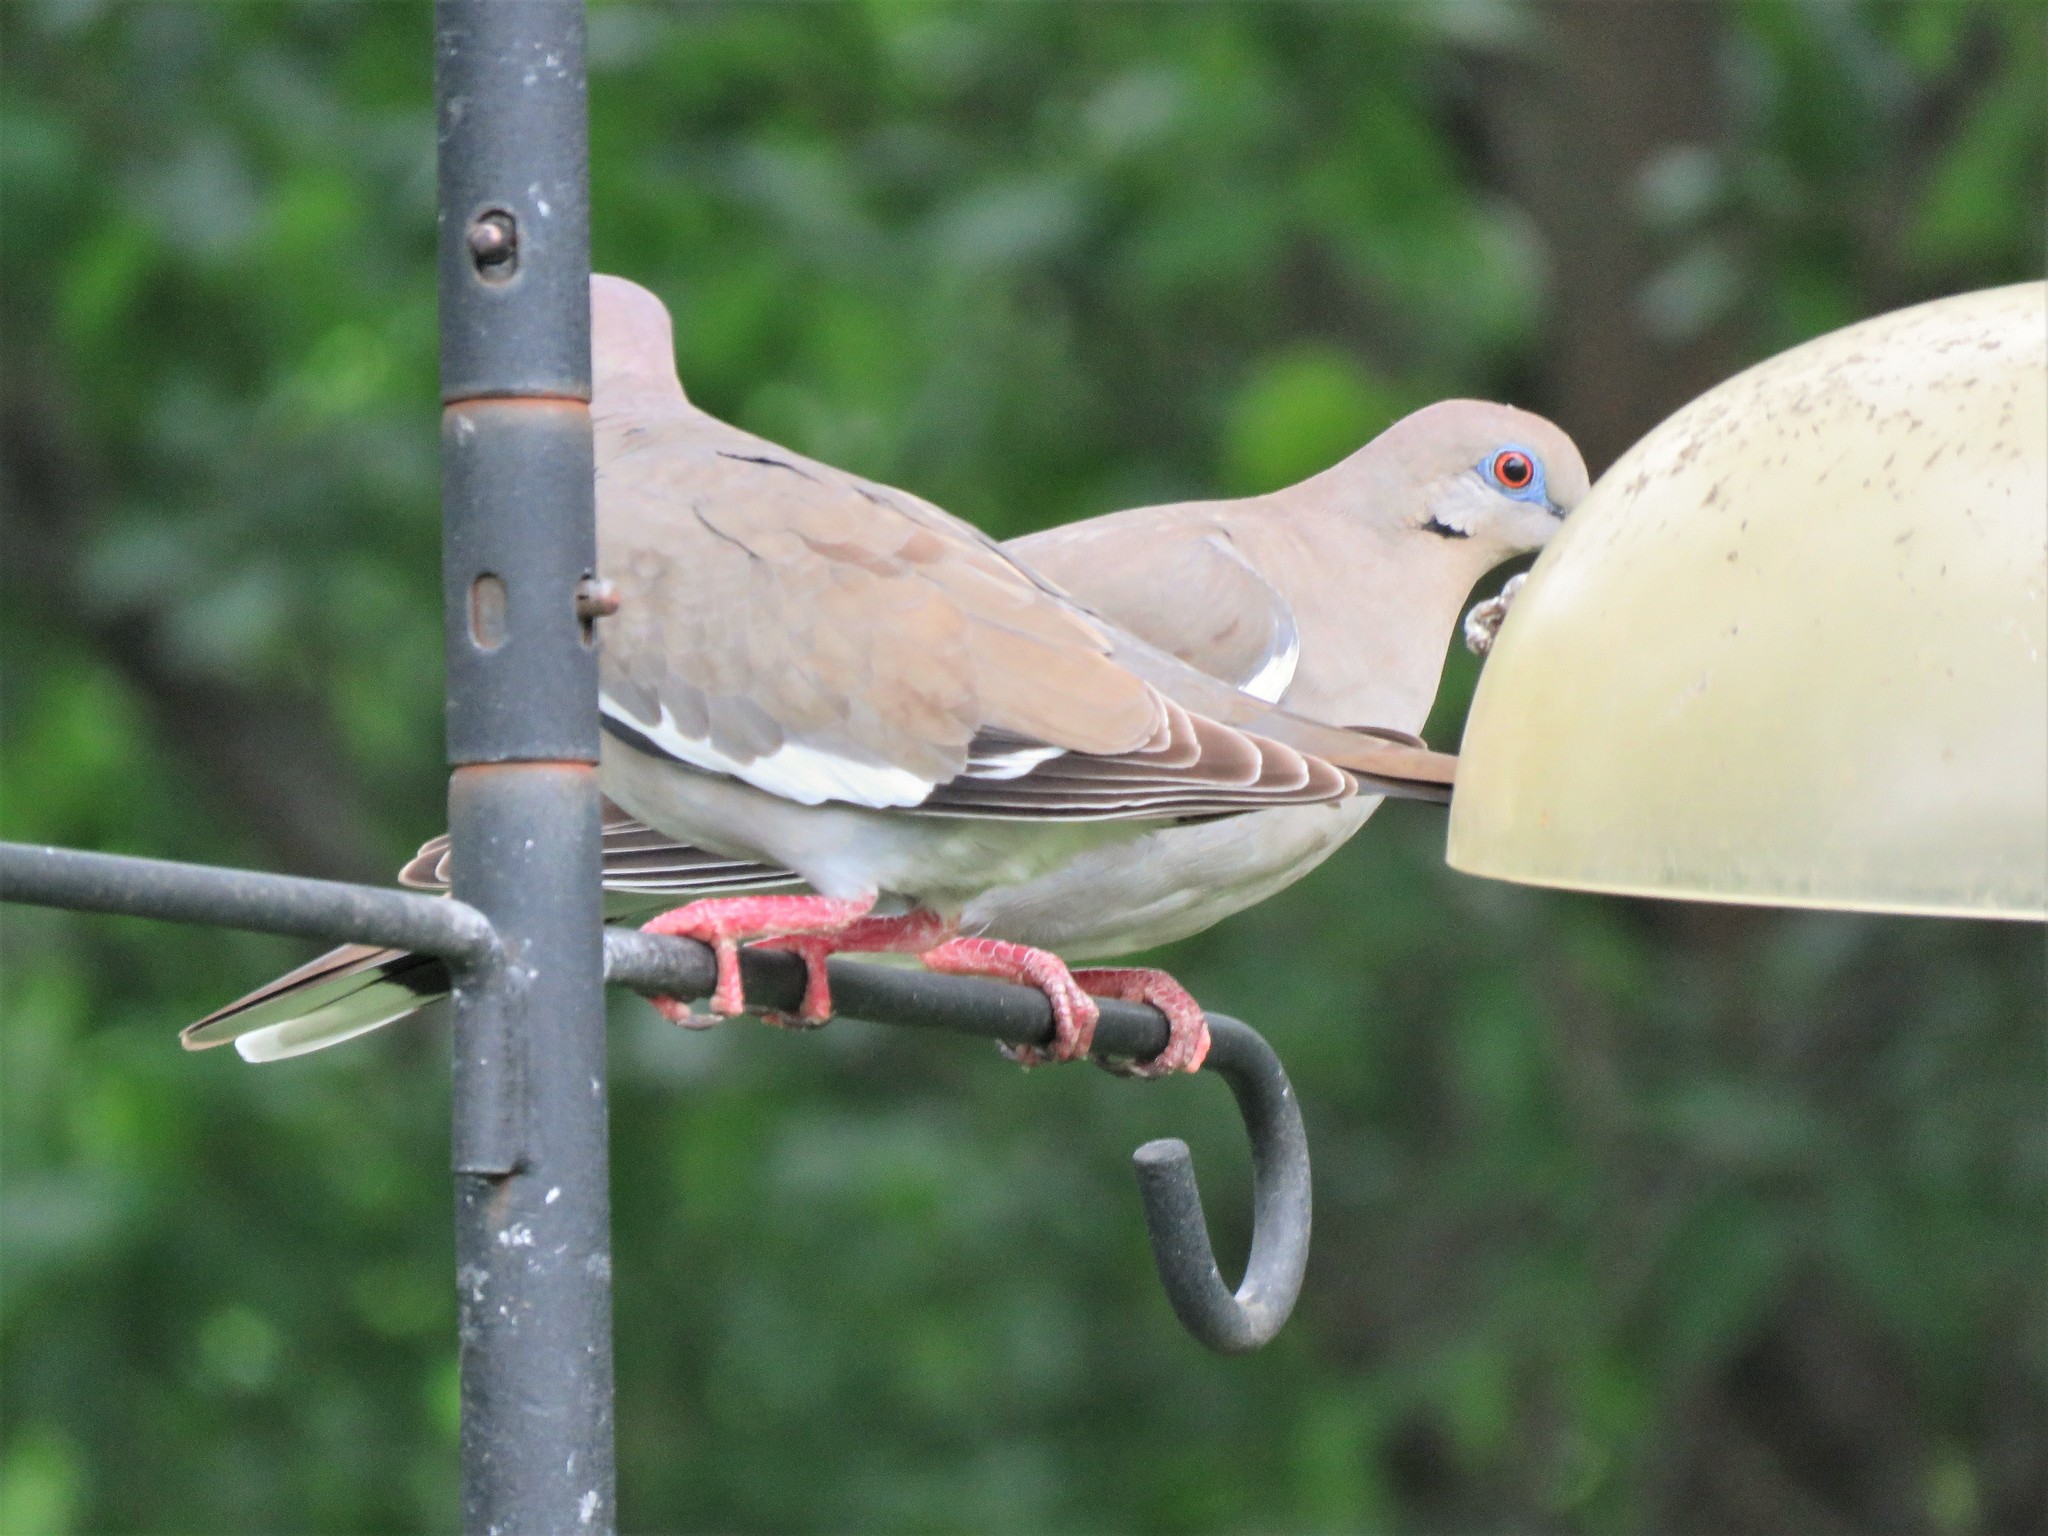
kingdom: Animalia
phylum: Chordata
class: Aves
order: Columbiformes
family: Columbidae
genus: Zenaida
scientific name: Zenaida asiatica
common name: White-winged dove
